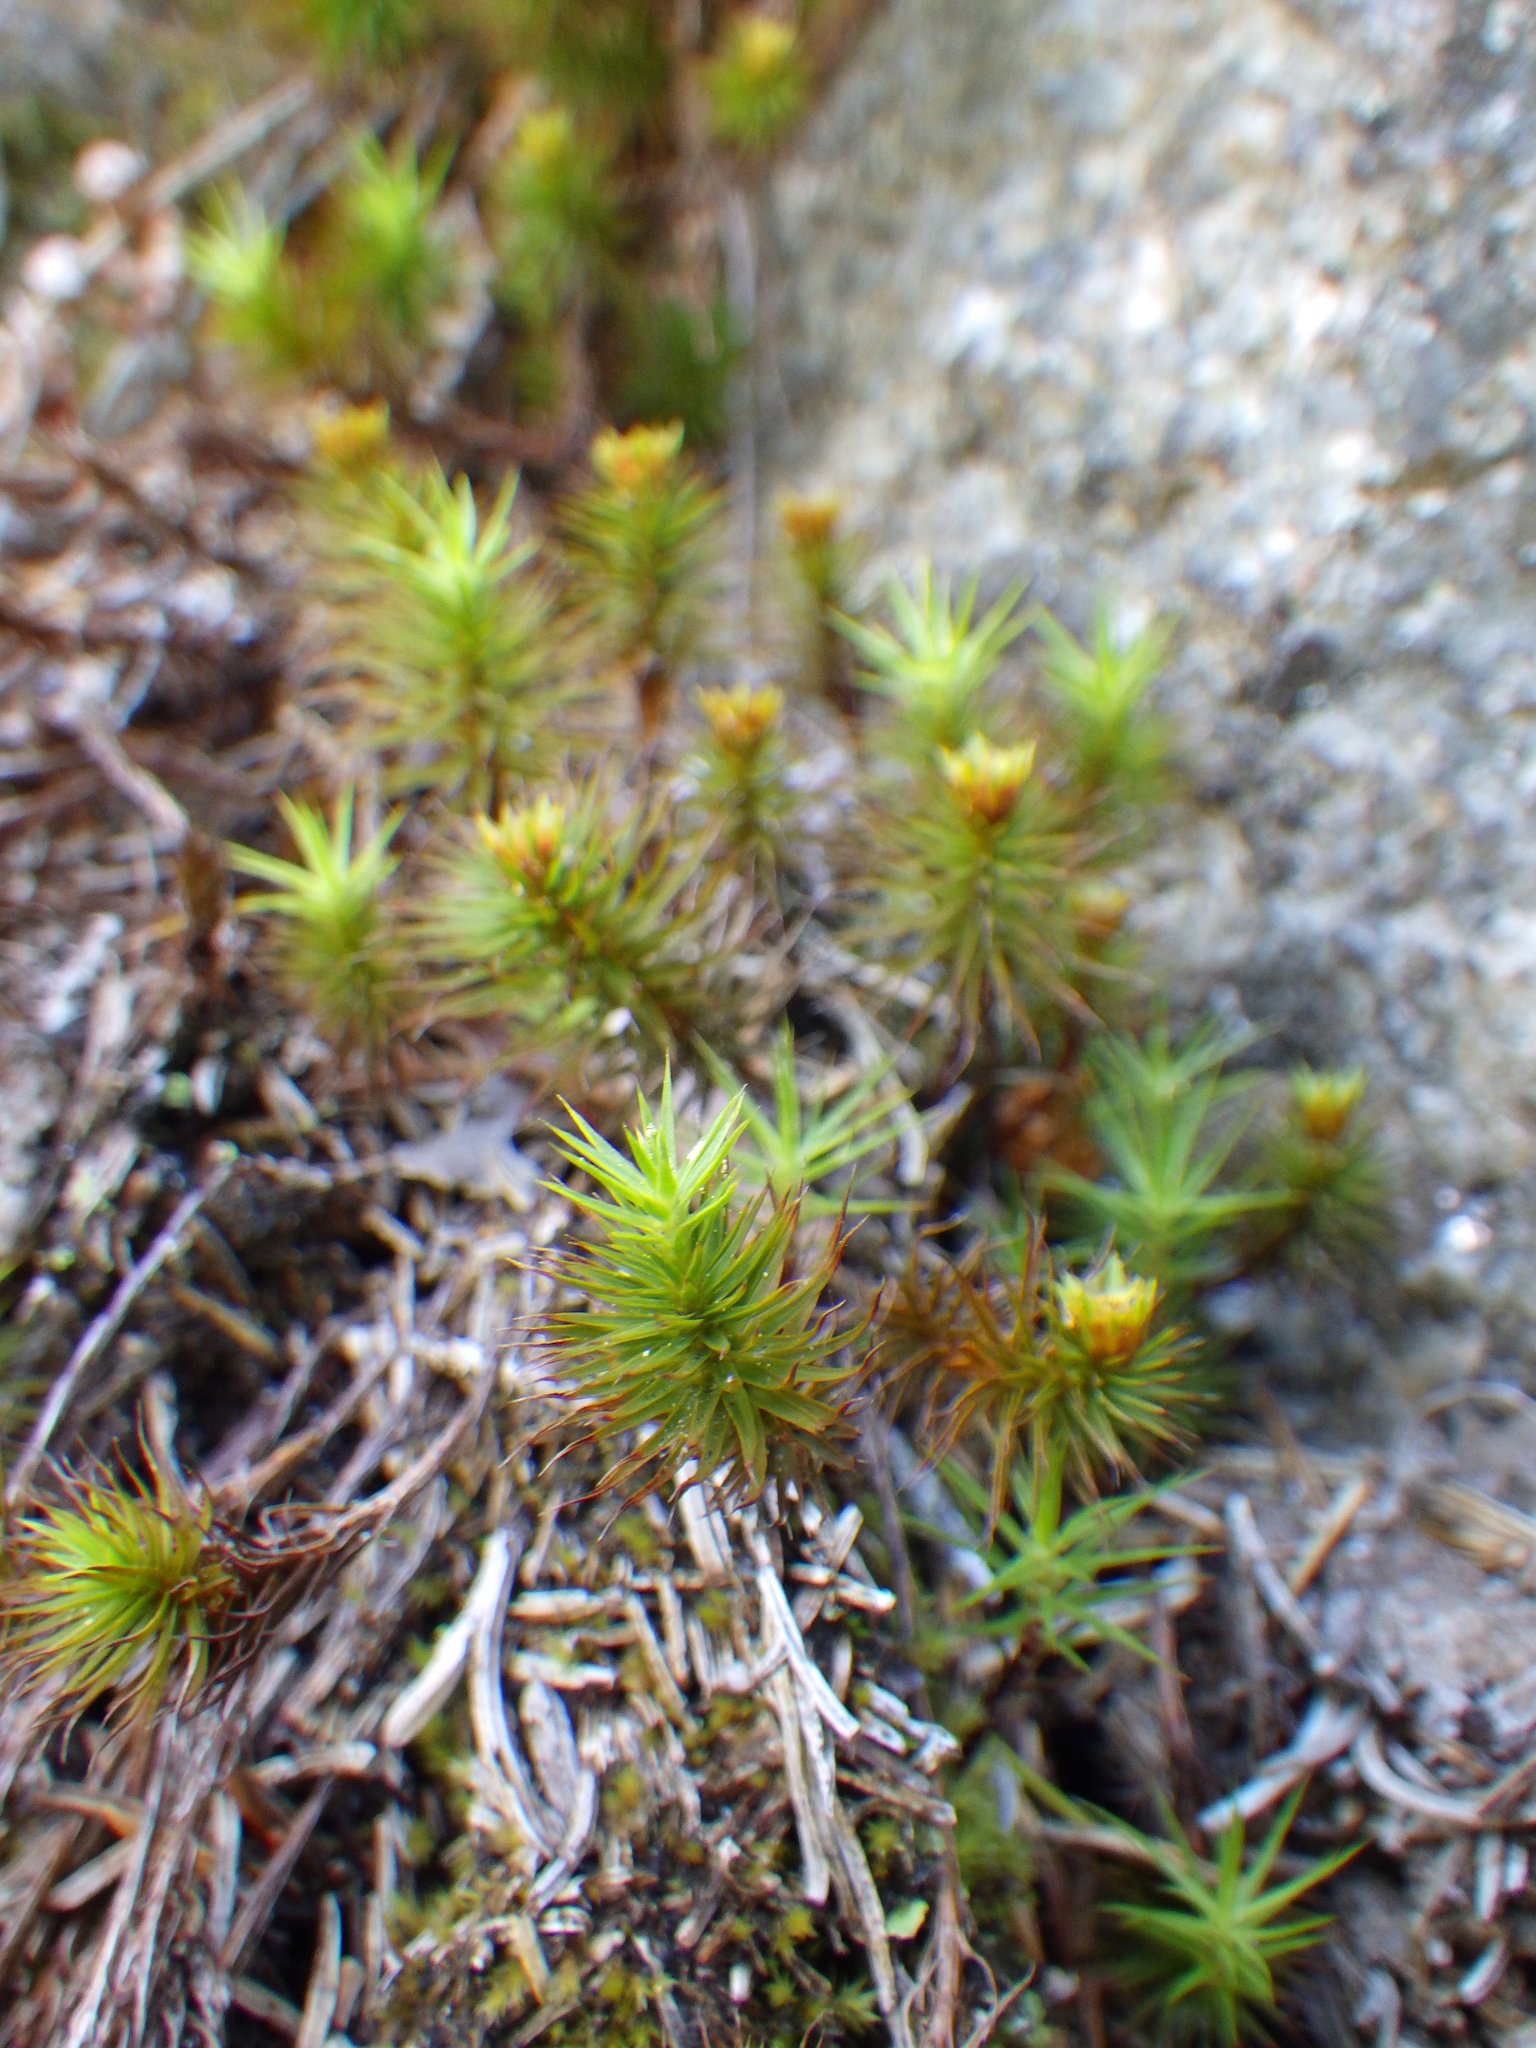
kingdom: Plantae
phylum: Bryophyta
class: Polytrichopsida
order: Polytrichales
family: Polytrichaceae
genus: Polytrichum
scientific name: Polytrichum juniperinum
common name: Juniper haircap moss
